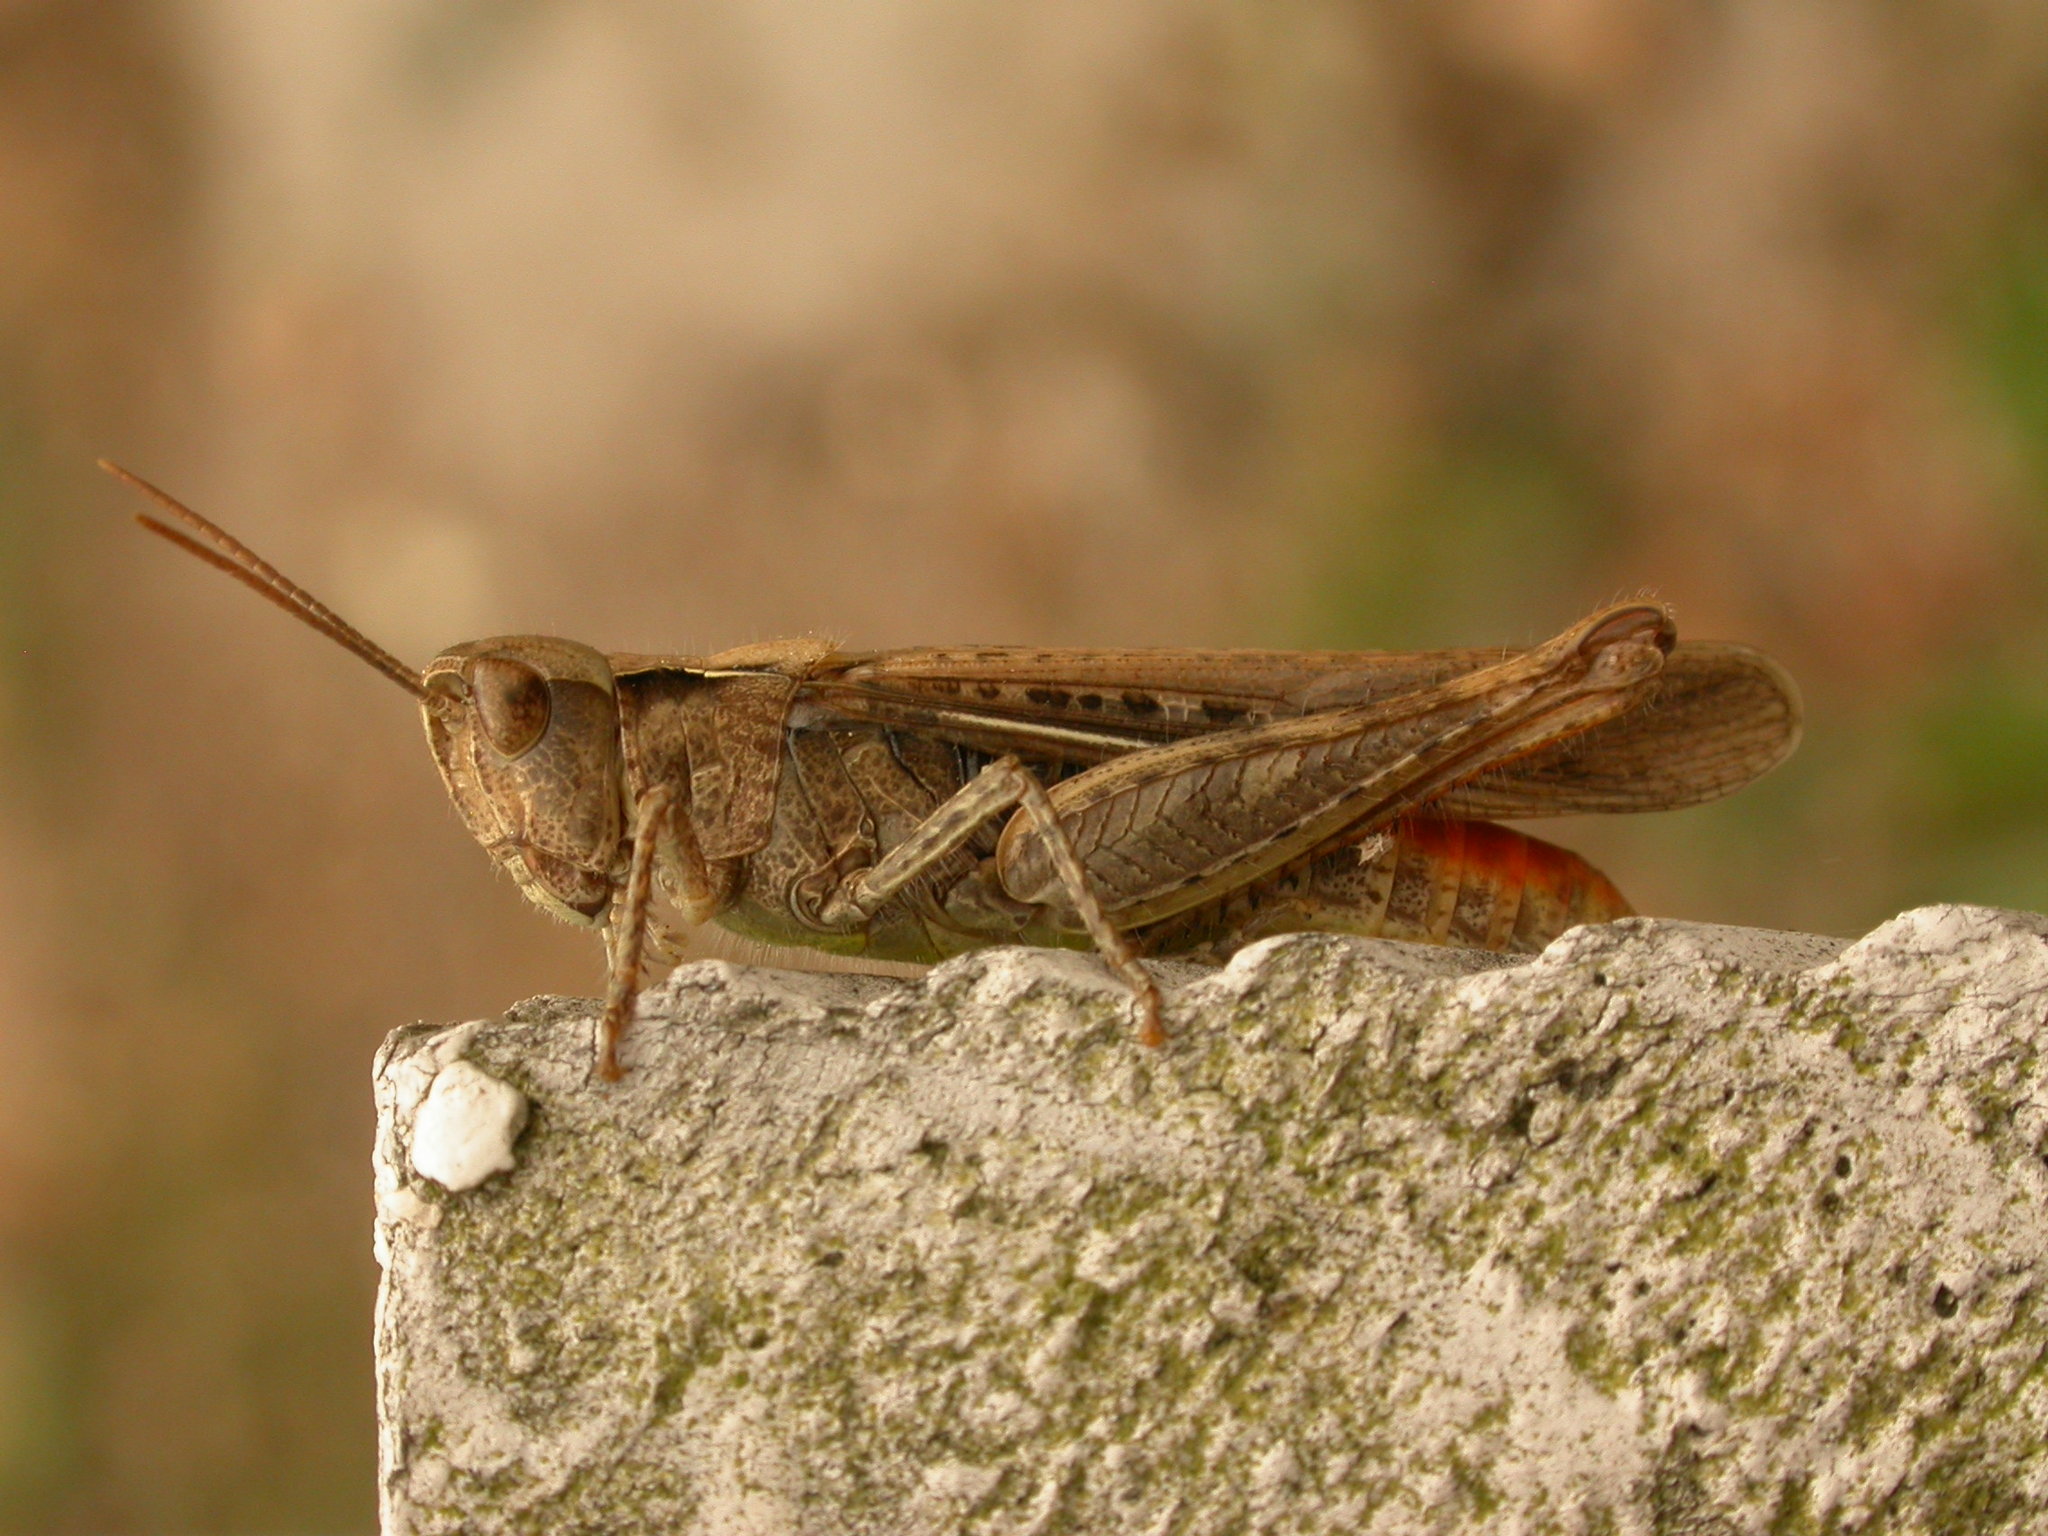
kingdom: Animalia
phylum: Arthropoda
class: Insecta
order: Orthoptera
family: Acrididae
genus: Chorthippus
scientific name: Chorthippus brunneus
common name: Field grasshopper
